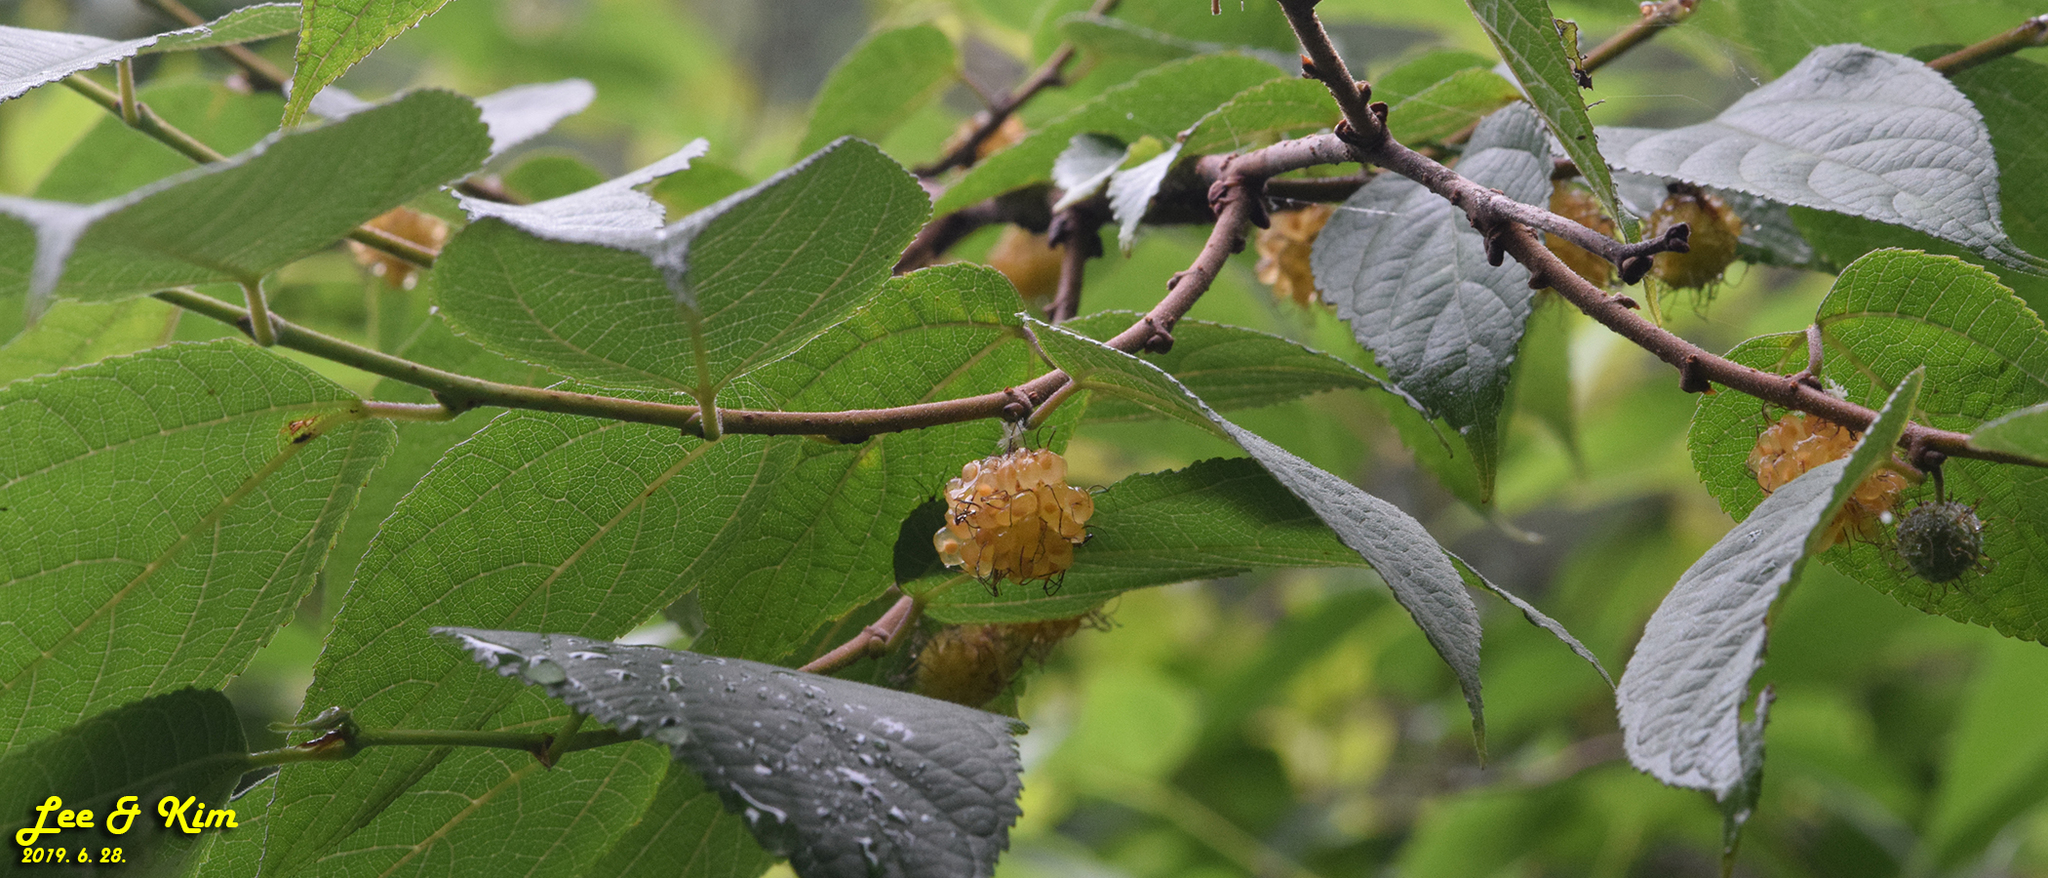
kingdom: Plantae
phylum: Tracheophyta
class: Magnoliopsida
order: Rosales
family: Moraceae
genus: Broussonetia
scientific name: Broussonetia papyrifera
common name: Paper mulberry
